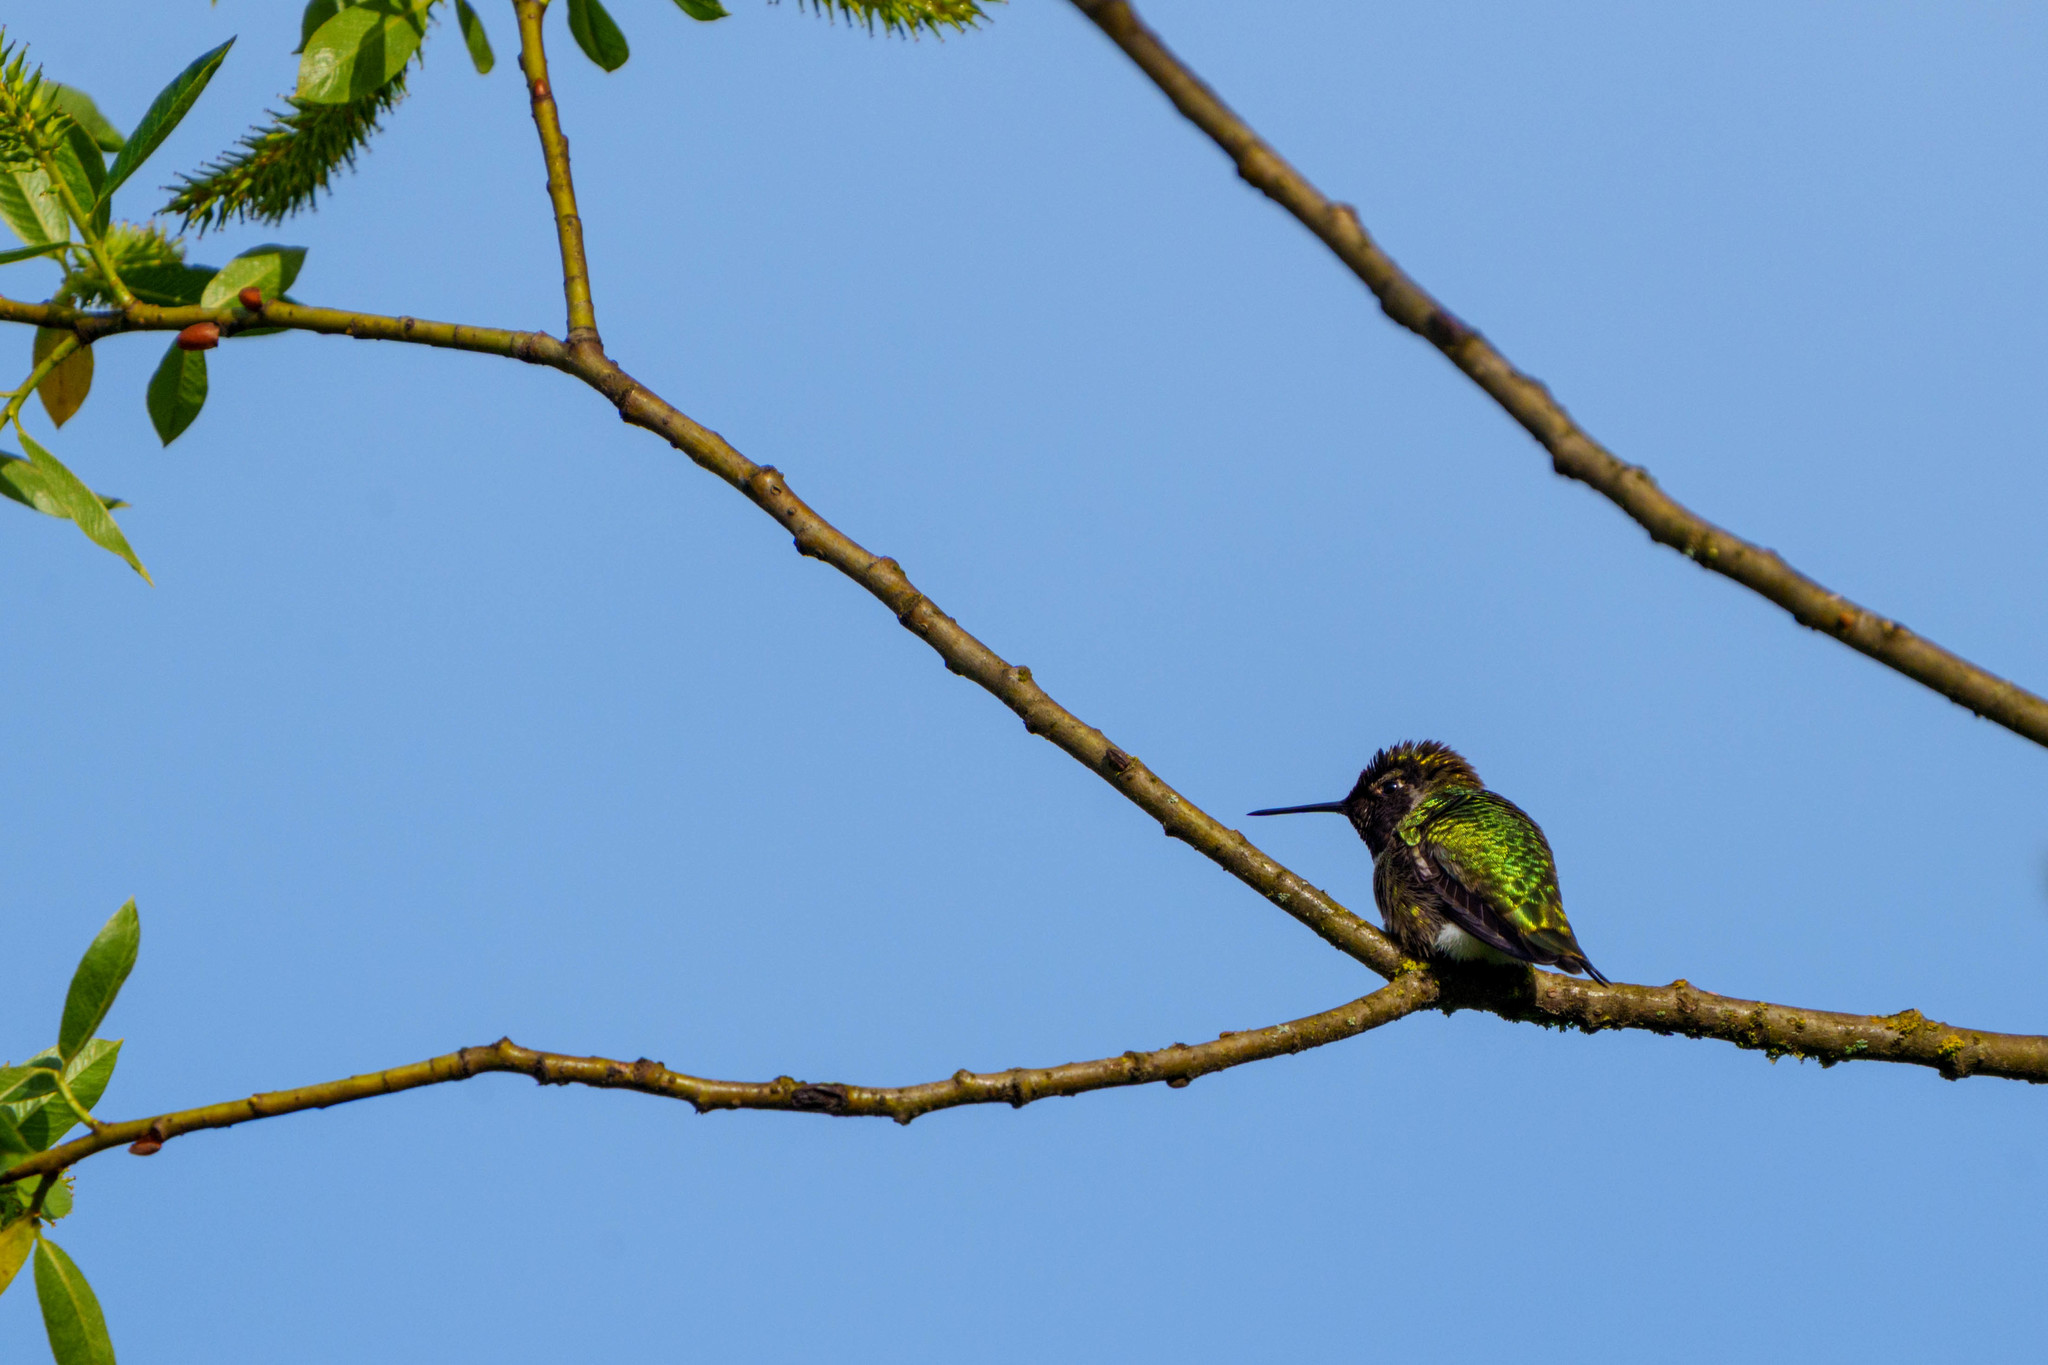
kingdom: Animalia
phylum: Chordata
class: Aves
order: Apodiformes
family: Trochilidae
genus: Calypte
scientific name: Calypte anna
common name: Anna's hummingbird
